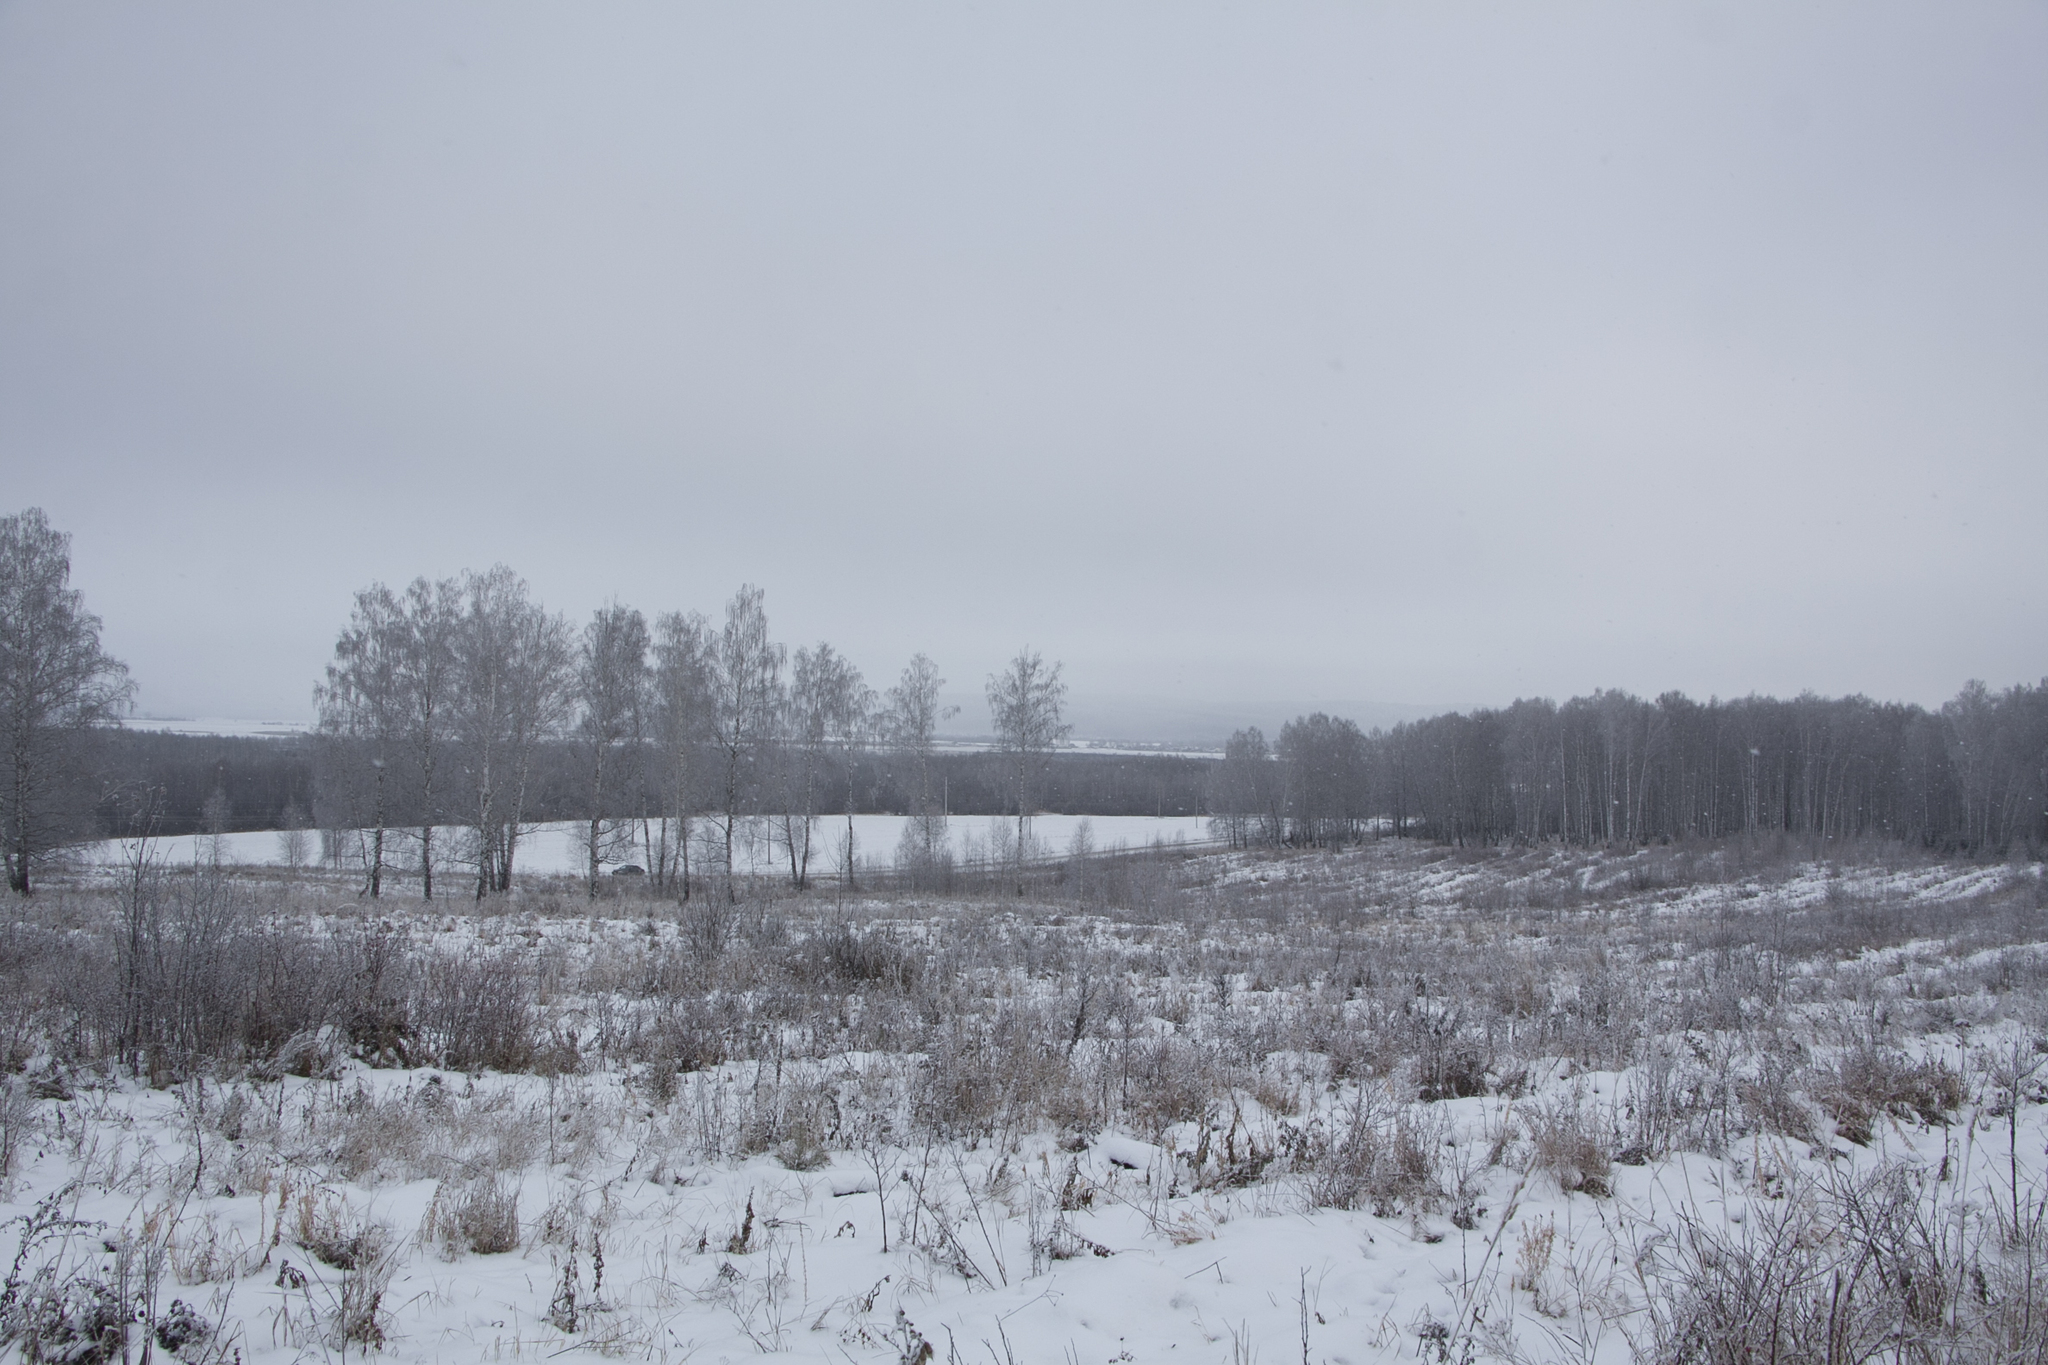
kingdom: Plantae
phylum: Tracheophyta
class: Magnoliopsida
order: Fagales
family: Betulaceae
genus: Betula
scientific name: Betula pendula
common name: Silver birch
